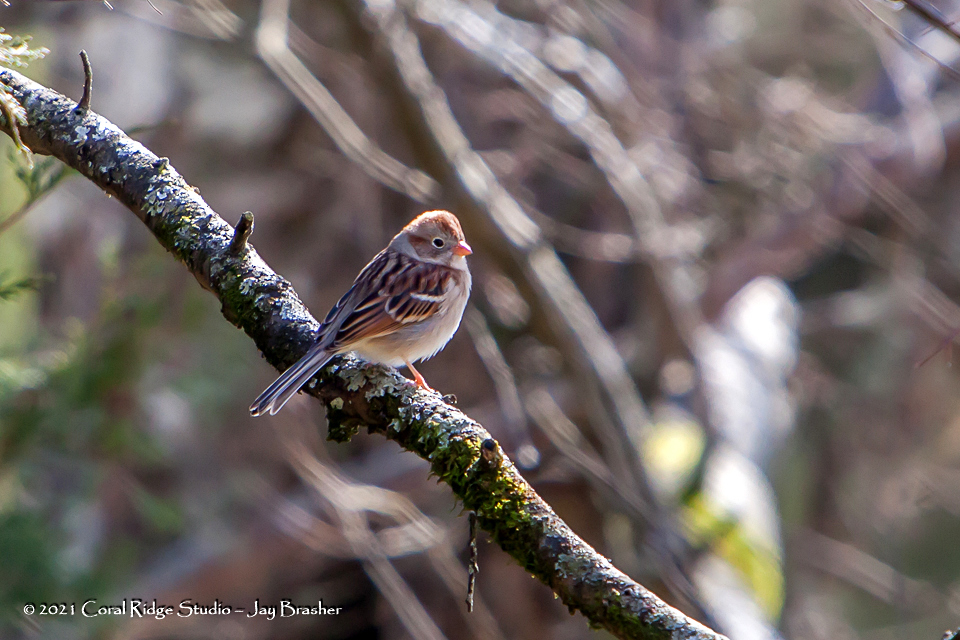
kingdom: Animalia
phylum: Chordata
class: Aves
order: Passeriformes
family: Passerellidae
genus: Spizella
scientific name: Spizella pusilla
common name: Field sparrow
